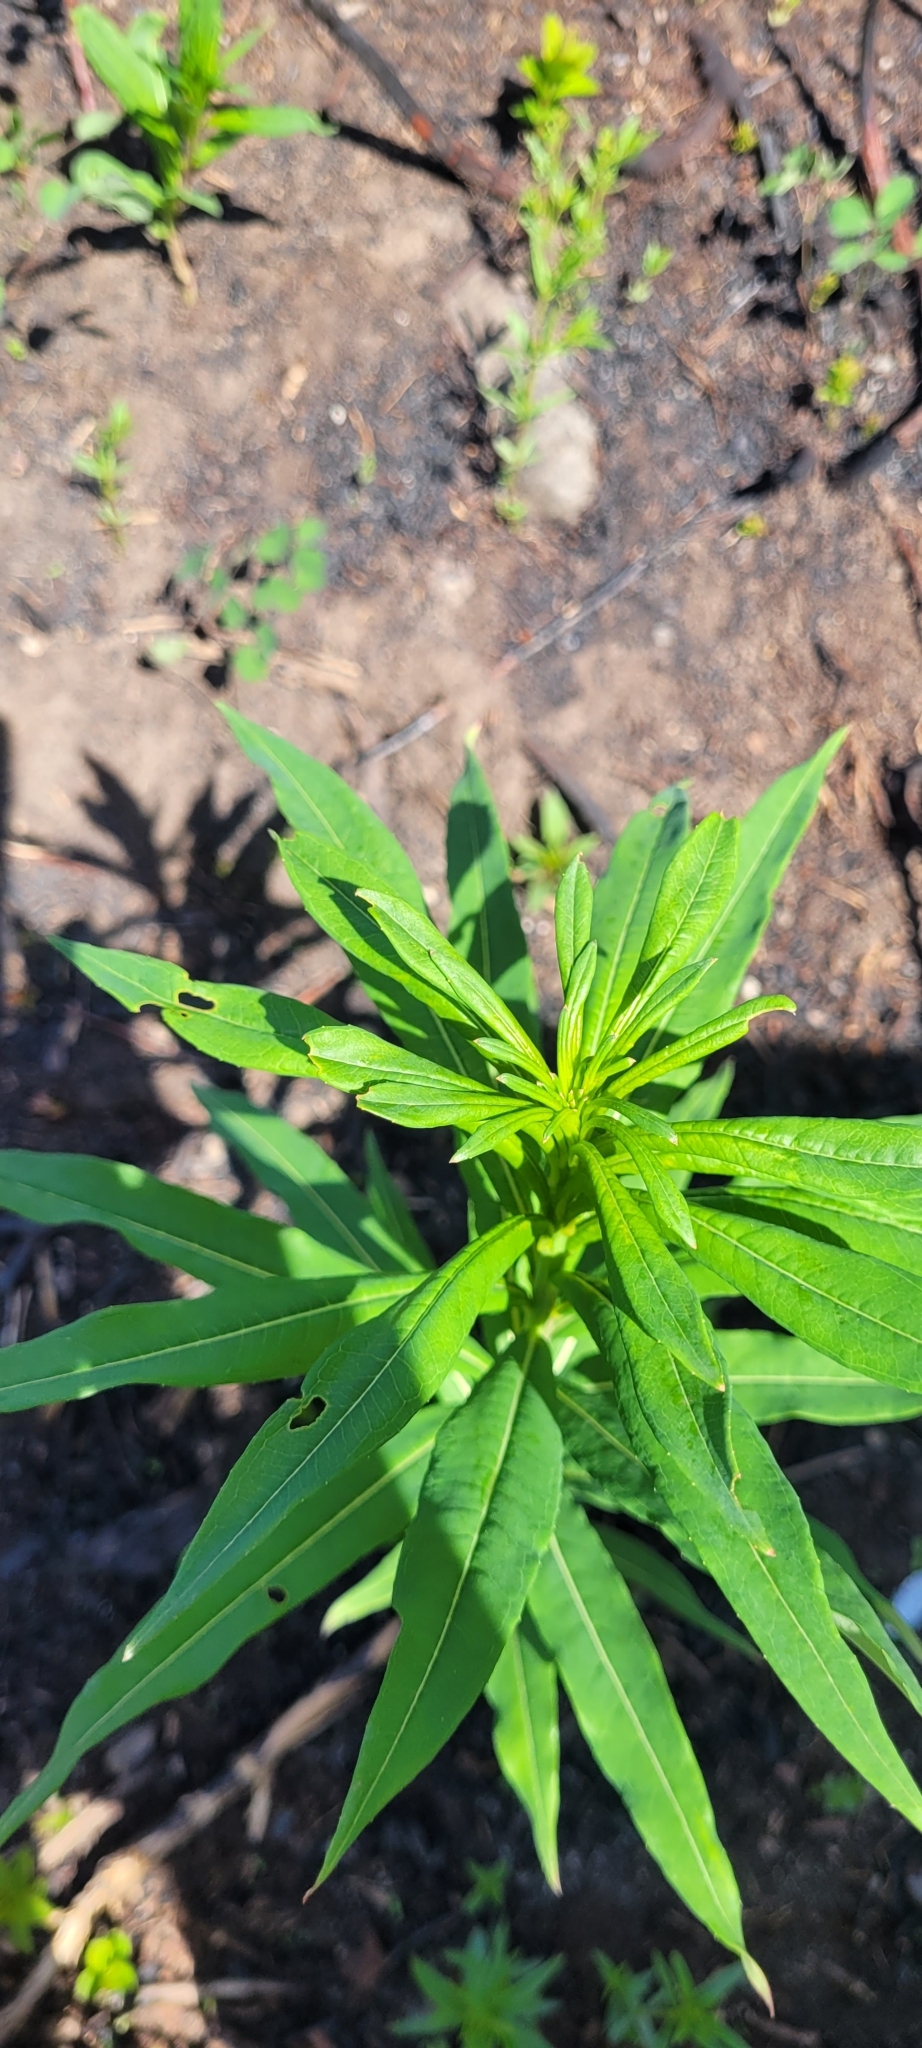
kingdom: Plantae
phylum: Tracheophyta
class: Magnoliopsida
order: Myrtales
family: Onagraceae
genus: Chamaenerion
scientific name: Chamaenerion angustifolium
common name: Fireweed
